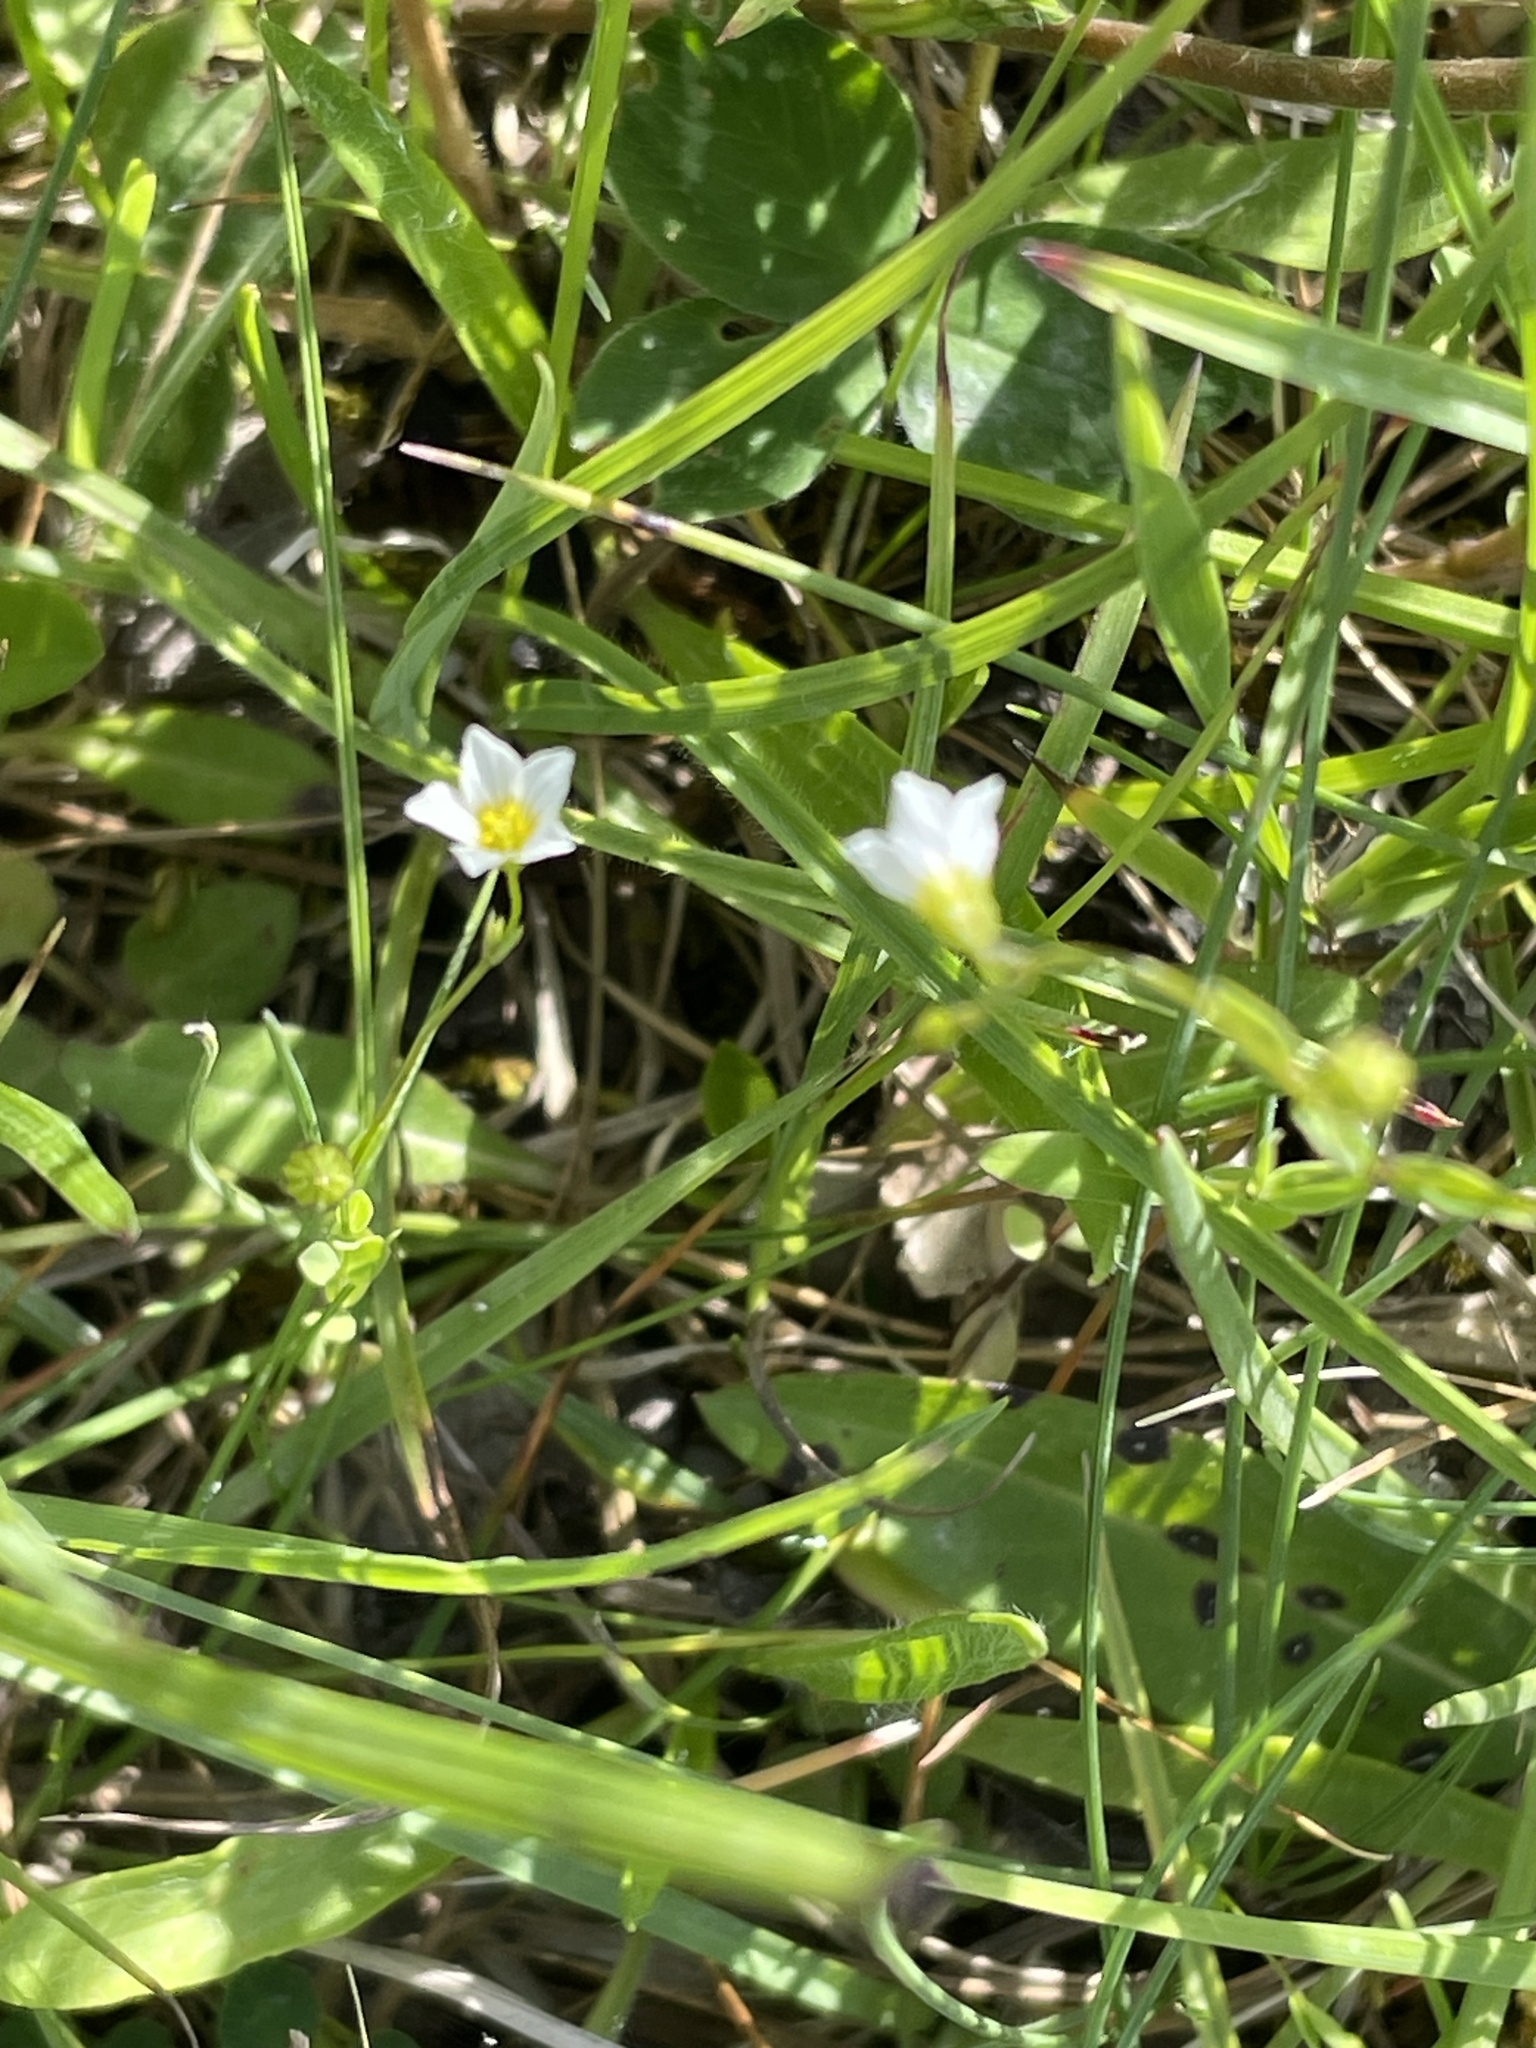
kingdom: Plantae
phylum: Tracheophyta
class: Magnoliopsida
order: Malpighiales
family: Linaceae
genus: Linum
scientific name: Linum catharticum
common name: Fairy flax
